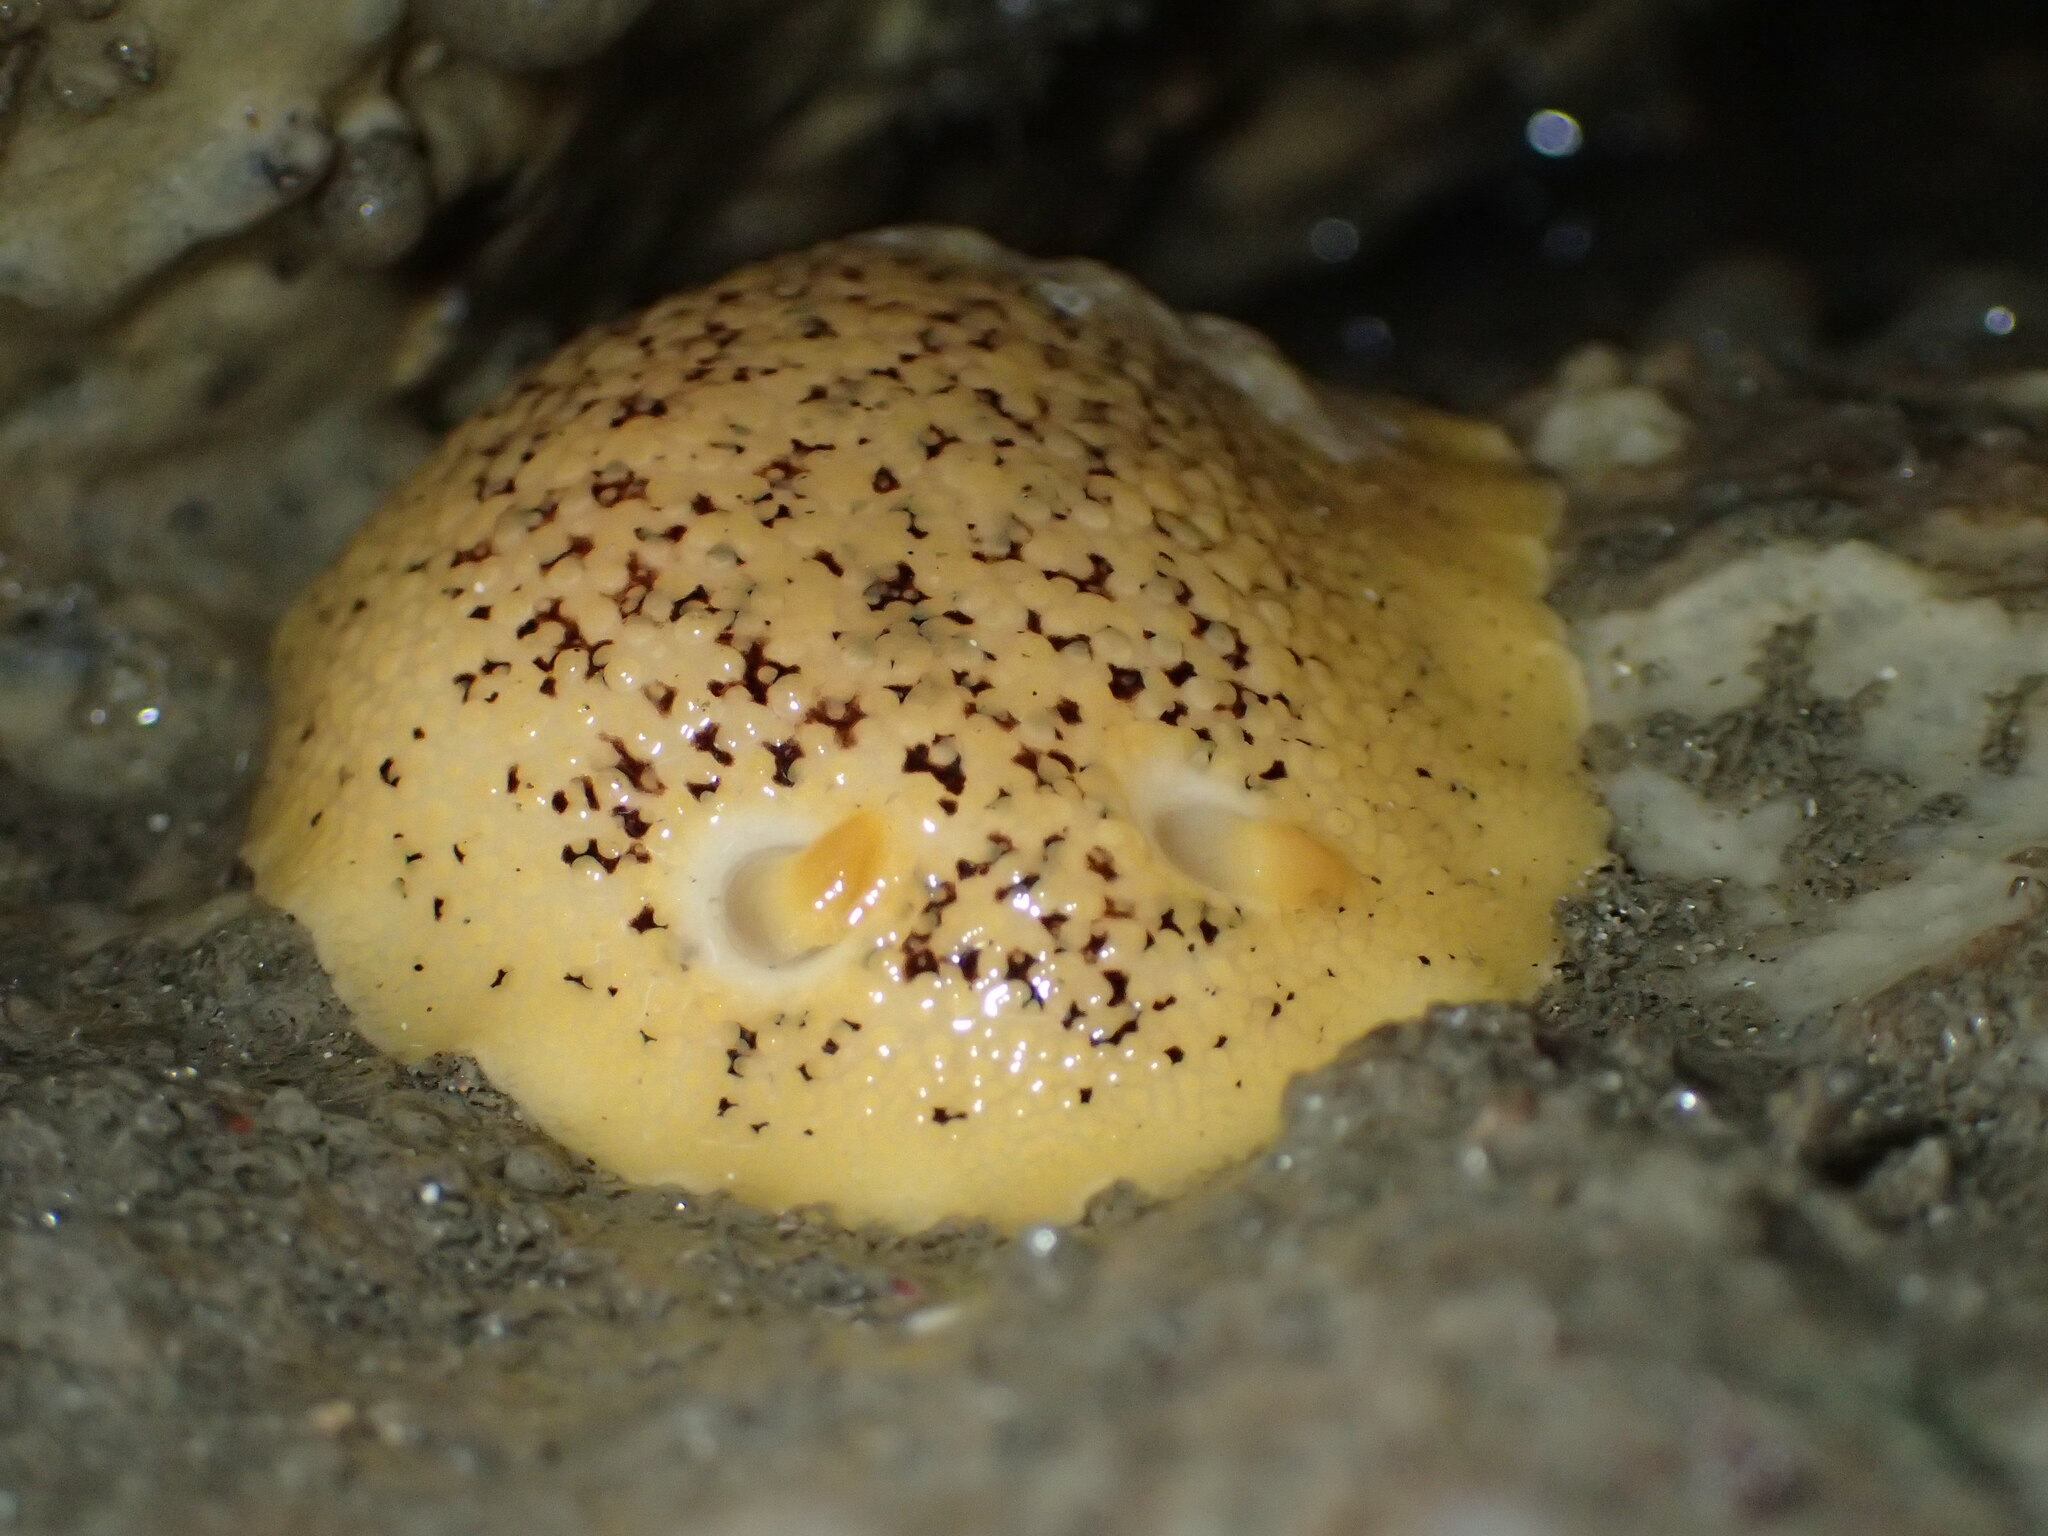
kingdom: Animalia
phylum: Mollusca
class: Gastropoda
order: Nudibranchia
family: Discodorididae
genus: Peltodoris
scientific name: Peltodoris nobilis
